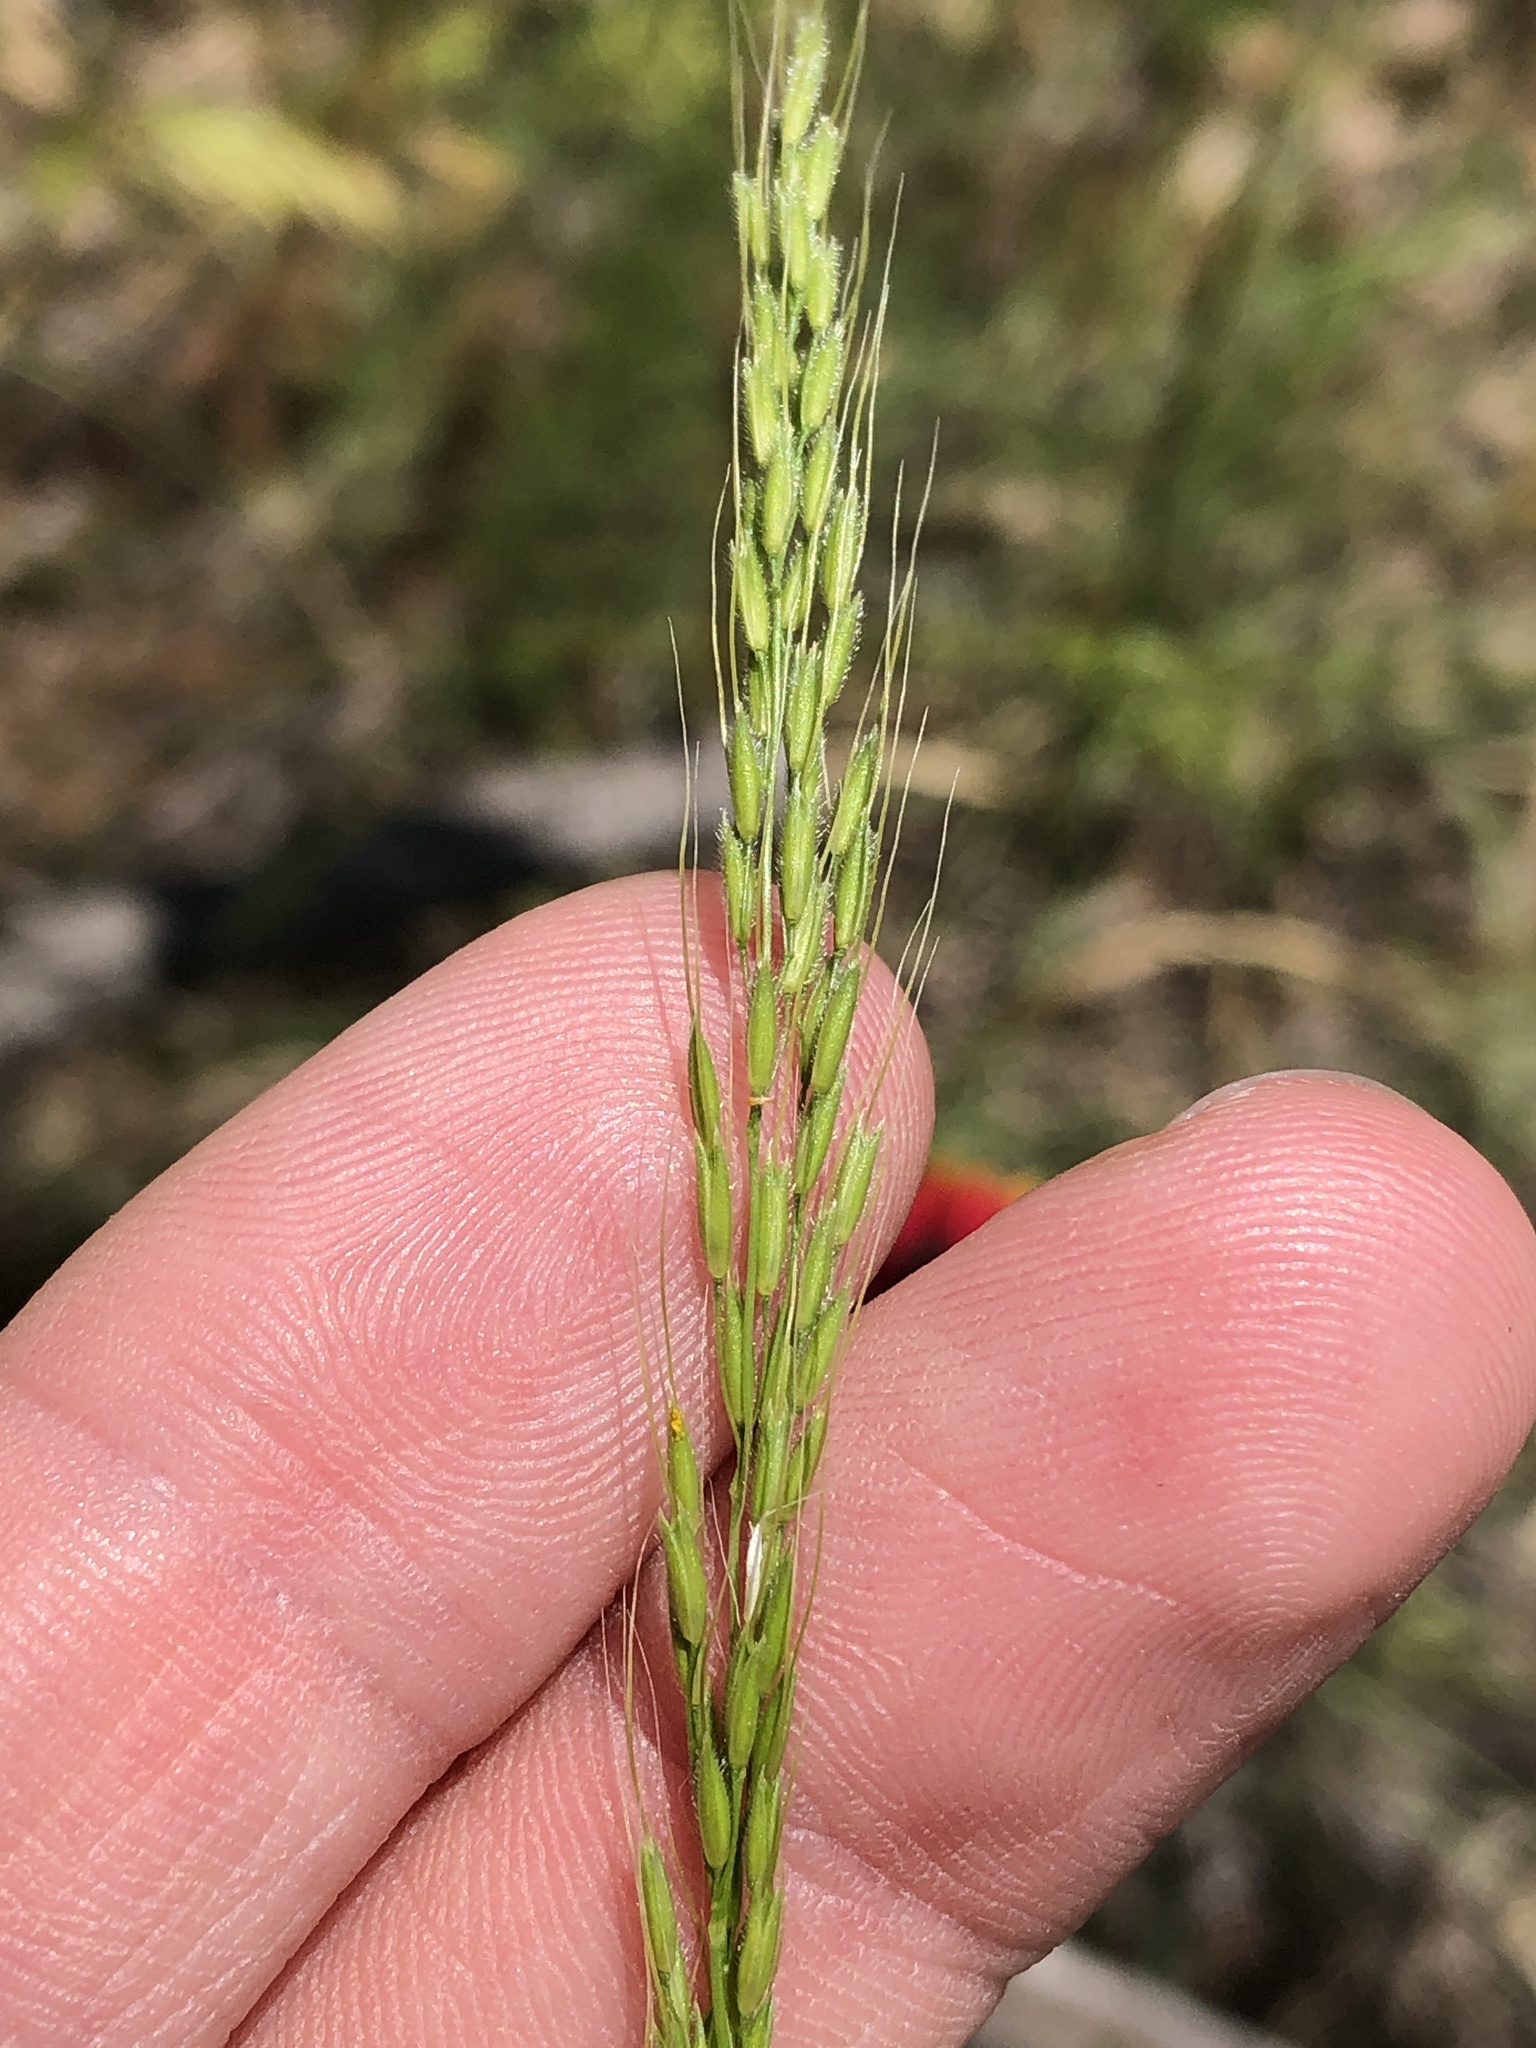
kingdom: Plantae
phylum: Tracheophyta
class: Liliopsida
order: Poales
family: Poaceae
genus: Limnodea
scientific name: Limnodea arkansana
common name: Ozark-grass
